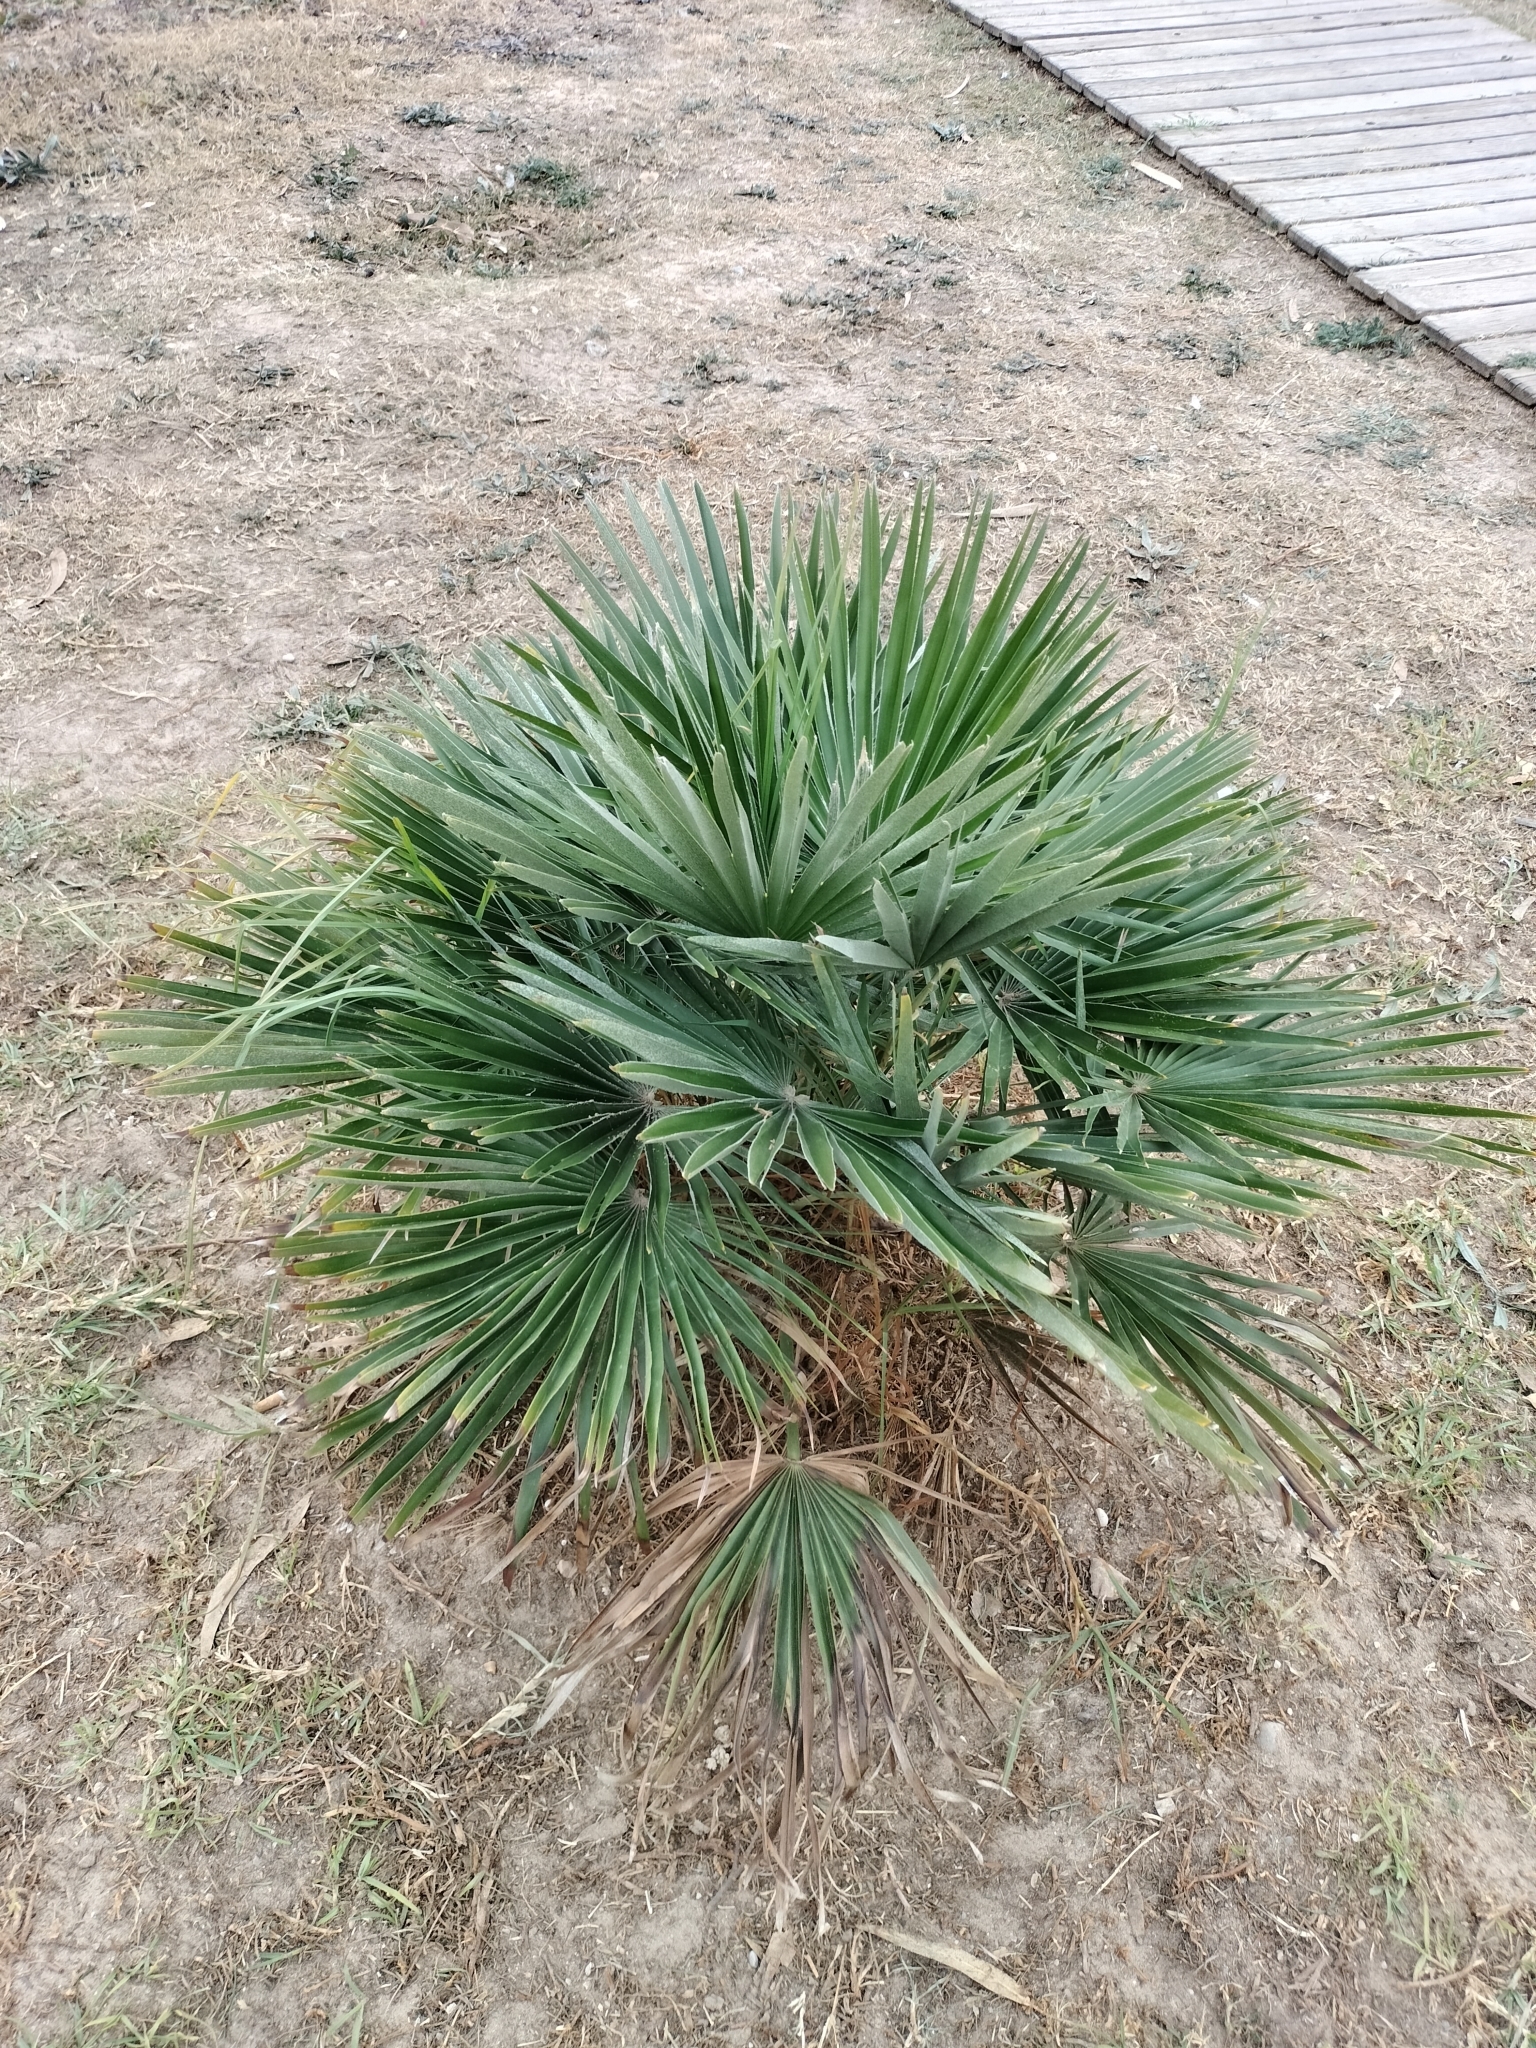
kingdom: Plantae
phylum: Tracheophyta
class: Liliopsida
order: Arecales
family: Arecaceae
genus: Chamaerops
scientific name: Chamaerops humilis
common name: Dwarf fan palm
